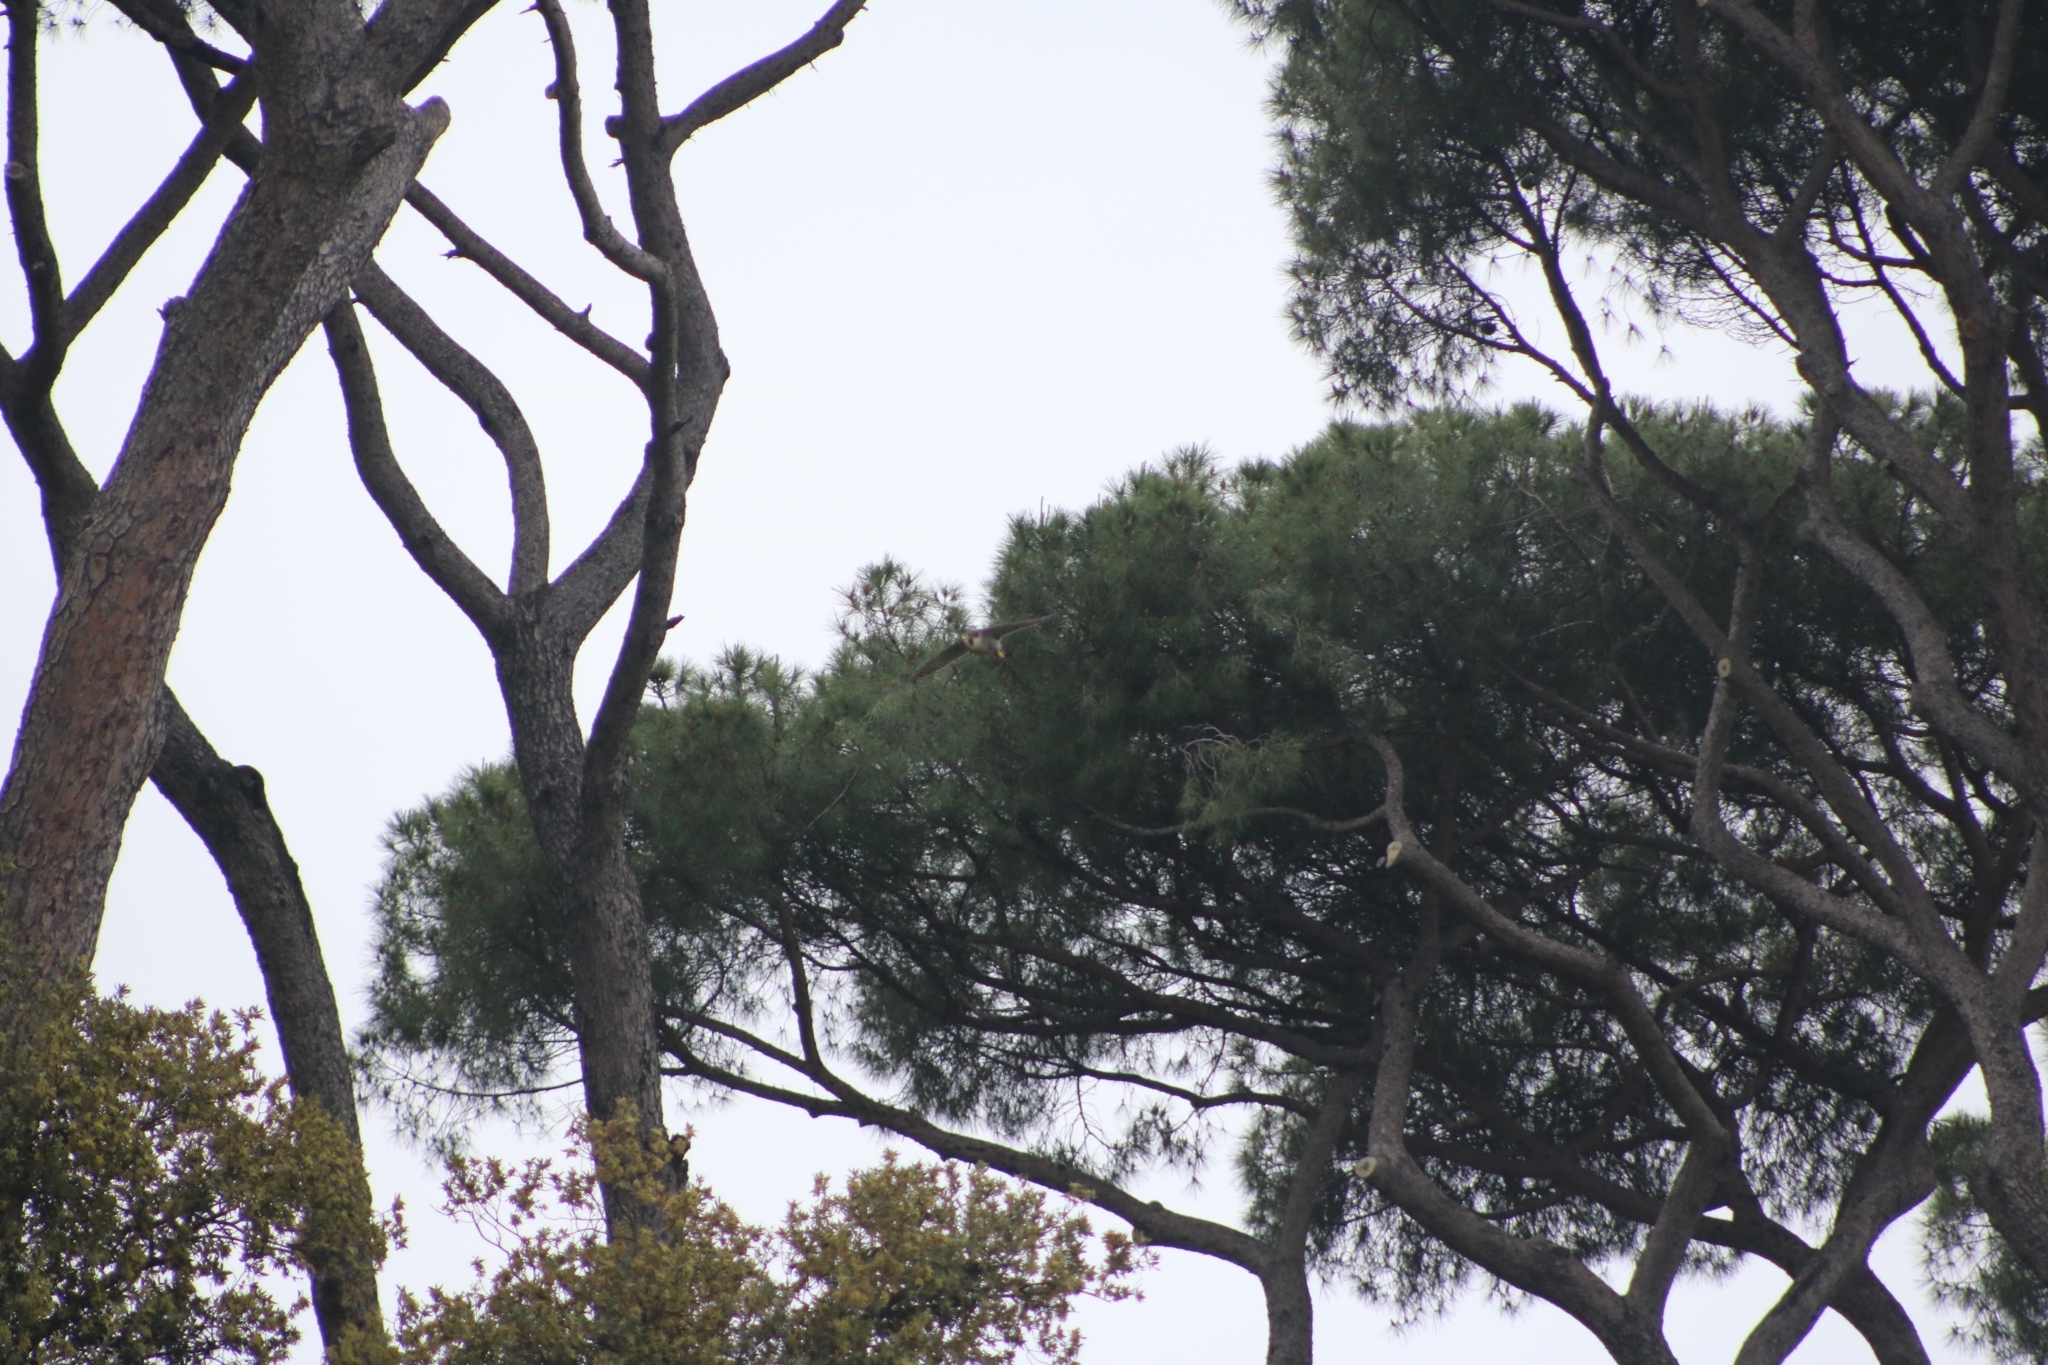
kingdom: Animalia
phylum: Chordata
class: Aves
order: Falconiformes
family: Falconidae
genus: Falco
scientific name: Falco peregrinus
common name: Peregrine falcon
